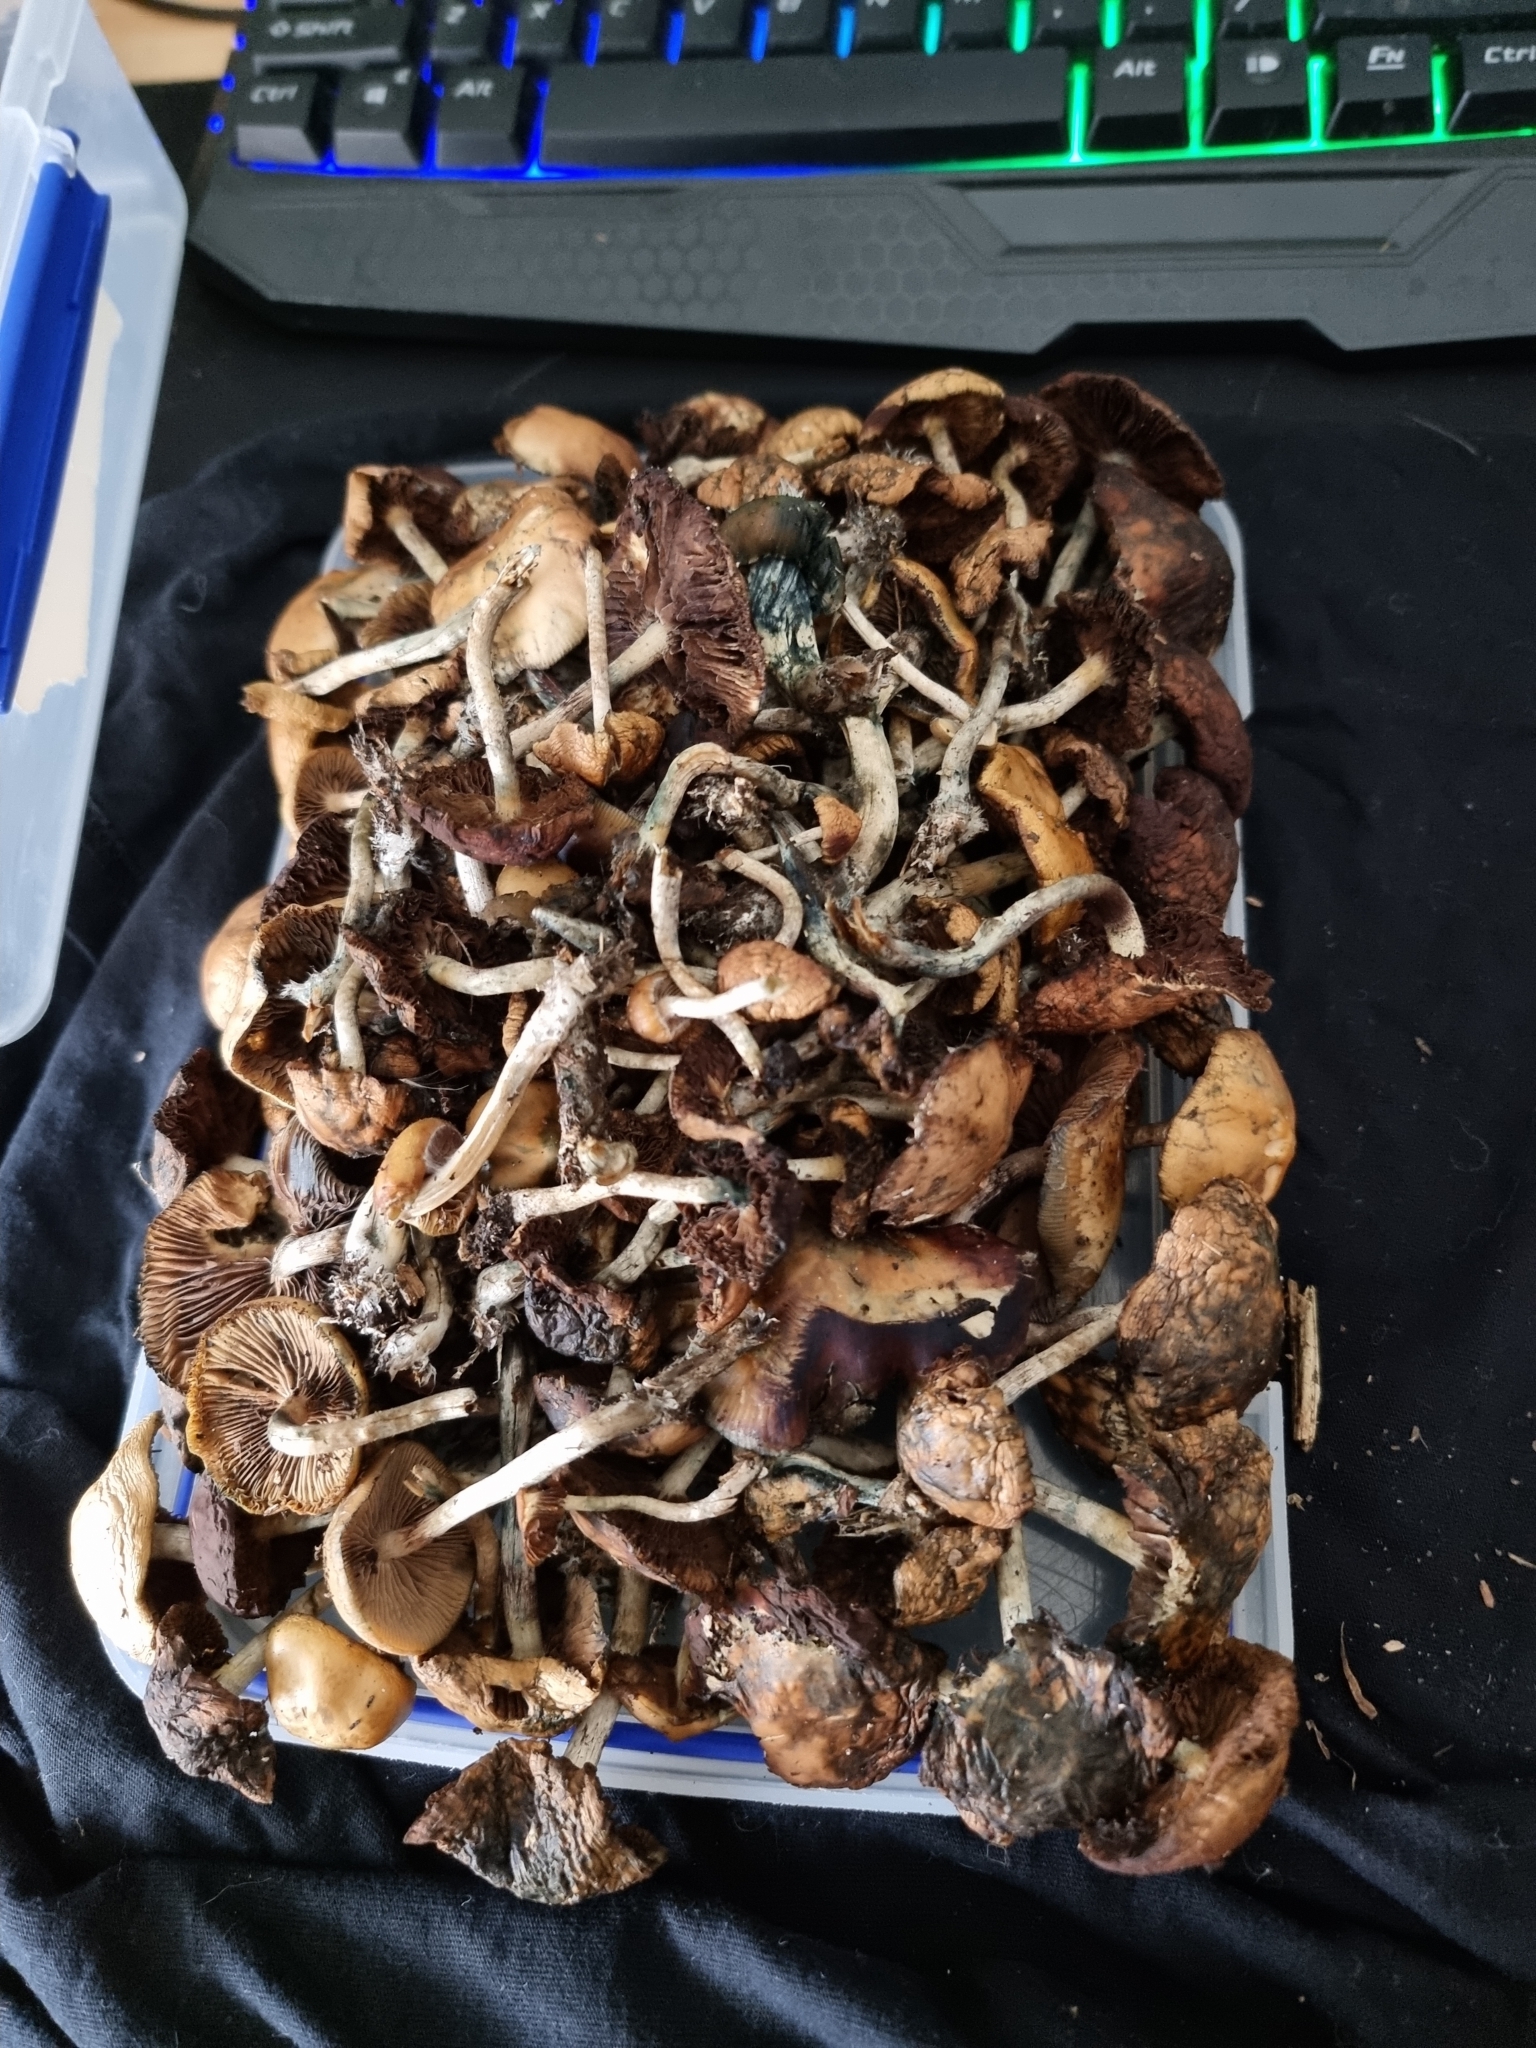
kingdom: Fungi
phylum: Basidiomycota
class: Agaricomycetes
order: Agaricales
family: Hymenogastraceae
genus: Psilocybe
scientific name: Psilocybe subaeruginosa
